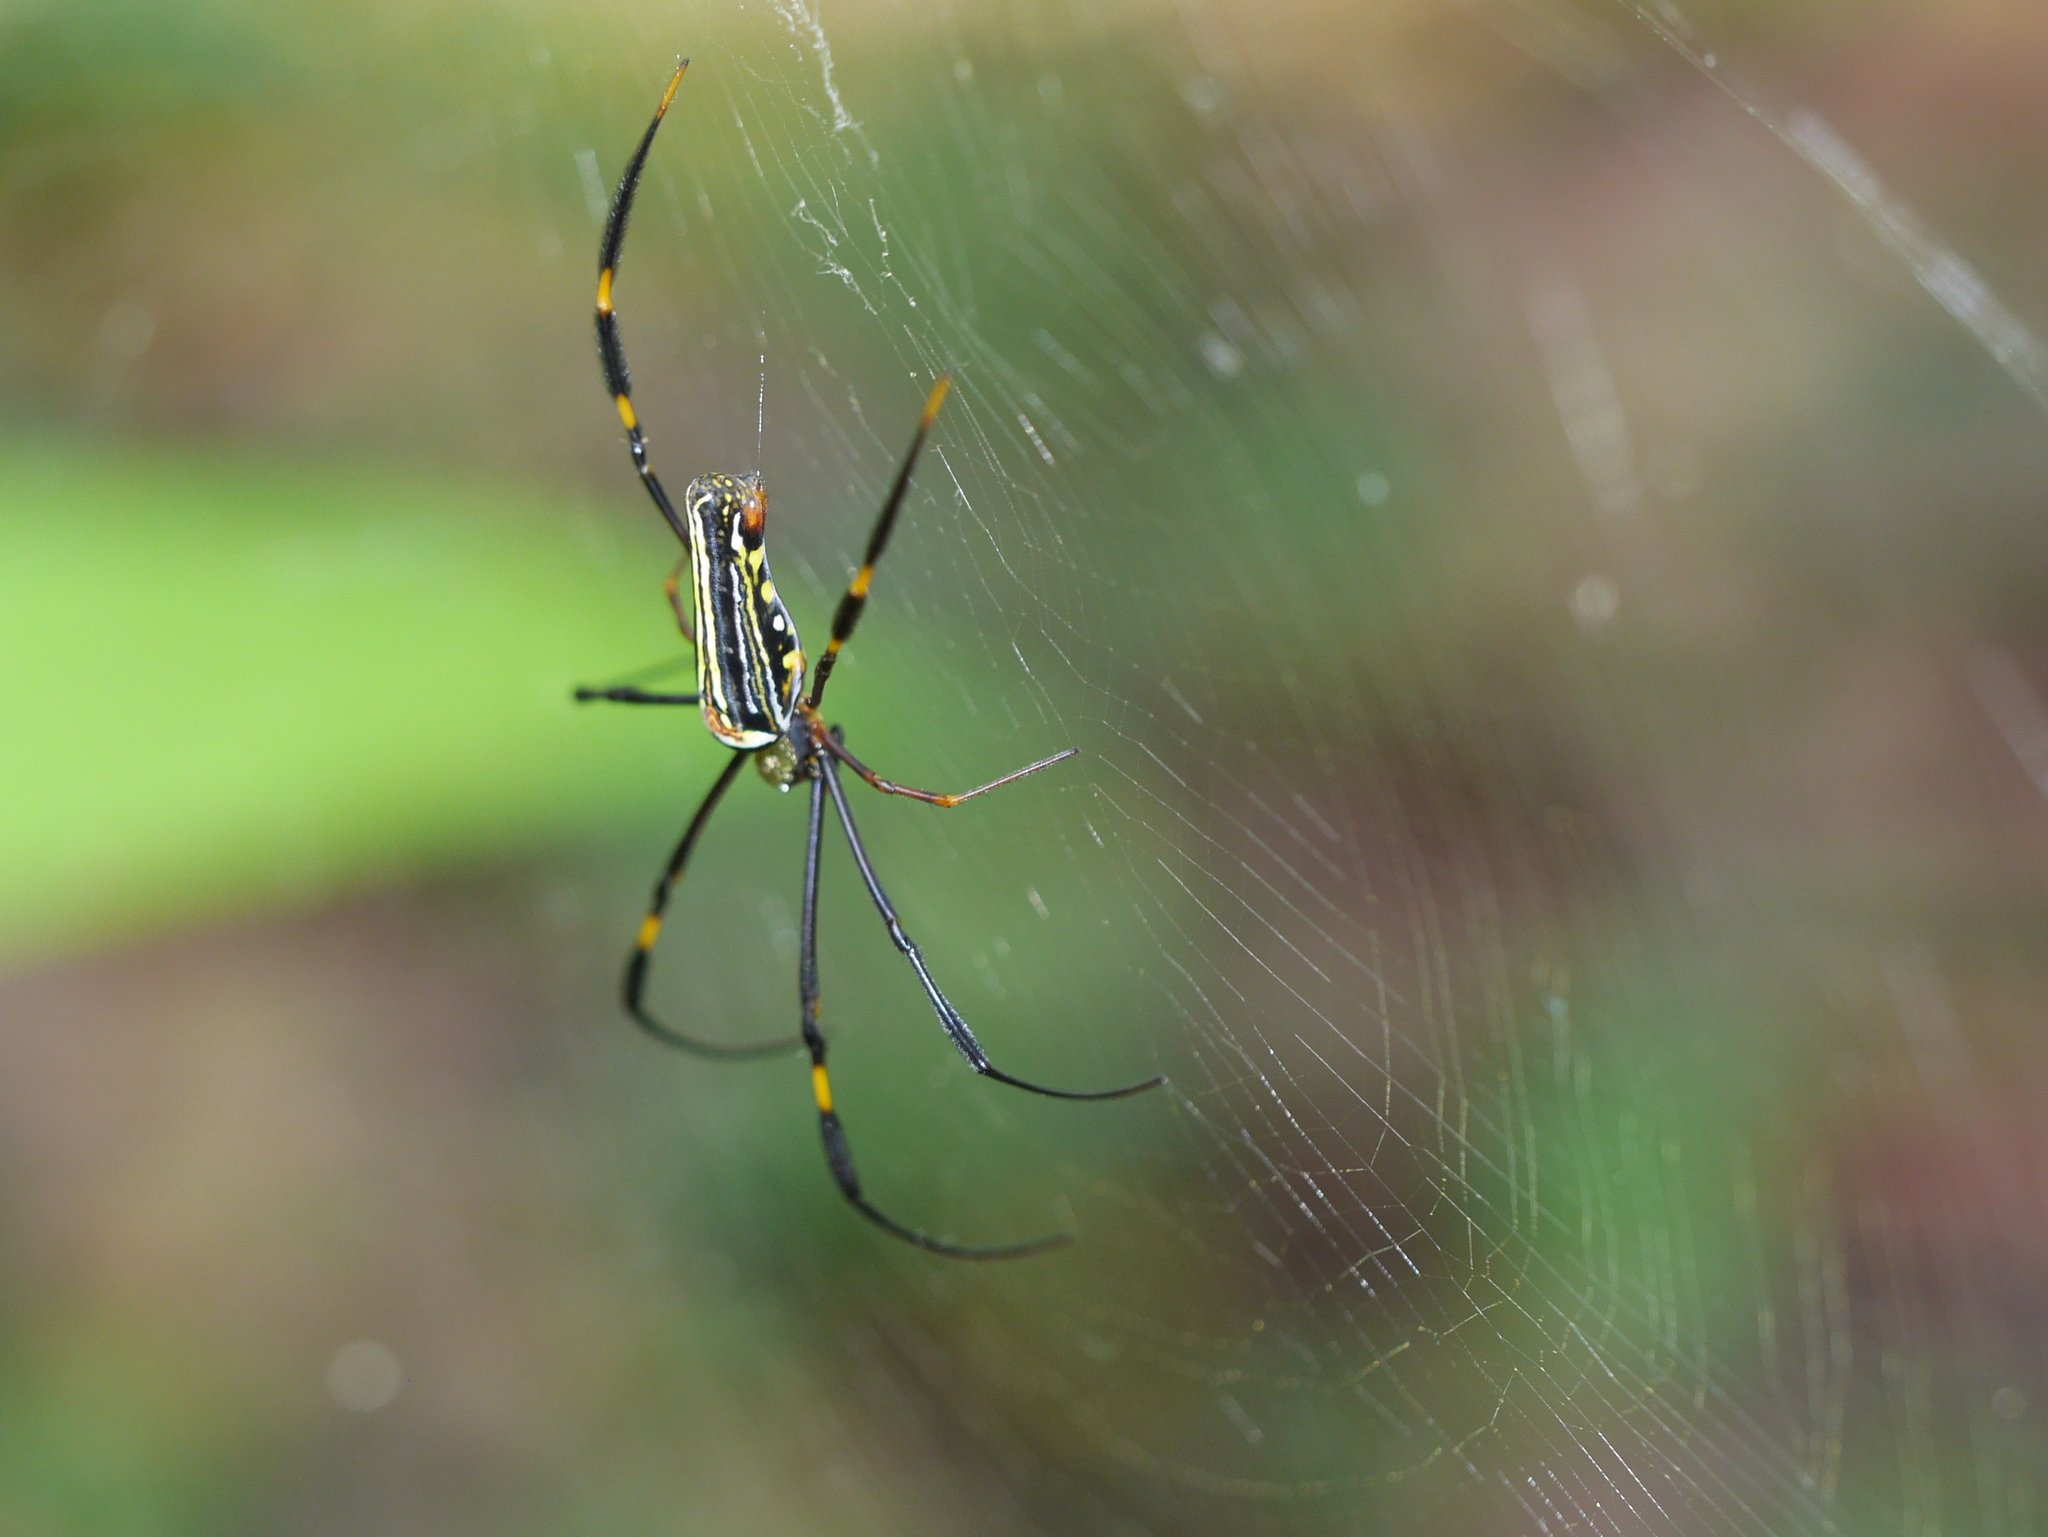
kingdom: Animalia
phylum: Arthropoda
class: Arachnida
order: Araneae
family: Araneidae
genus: Nephila
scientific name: Nephila pilipes
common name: Giant golden orb weaver
